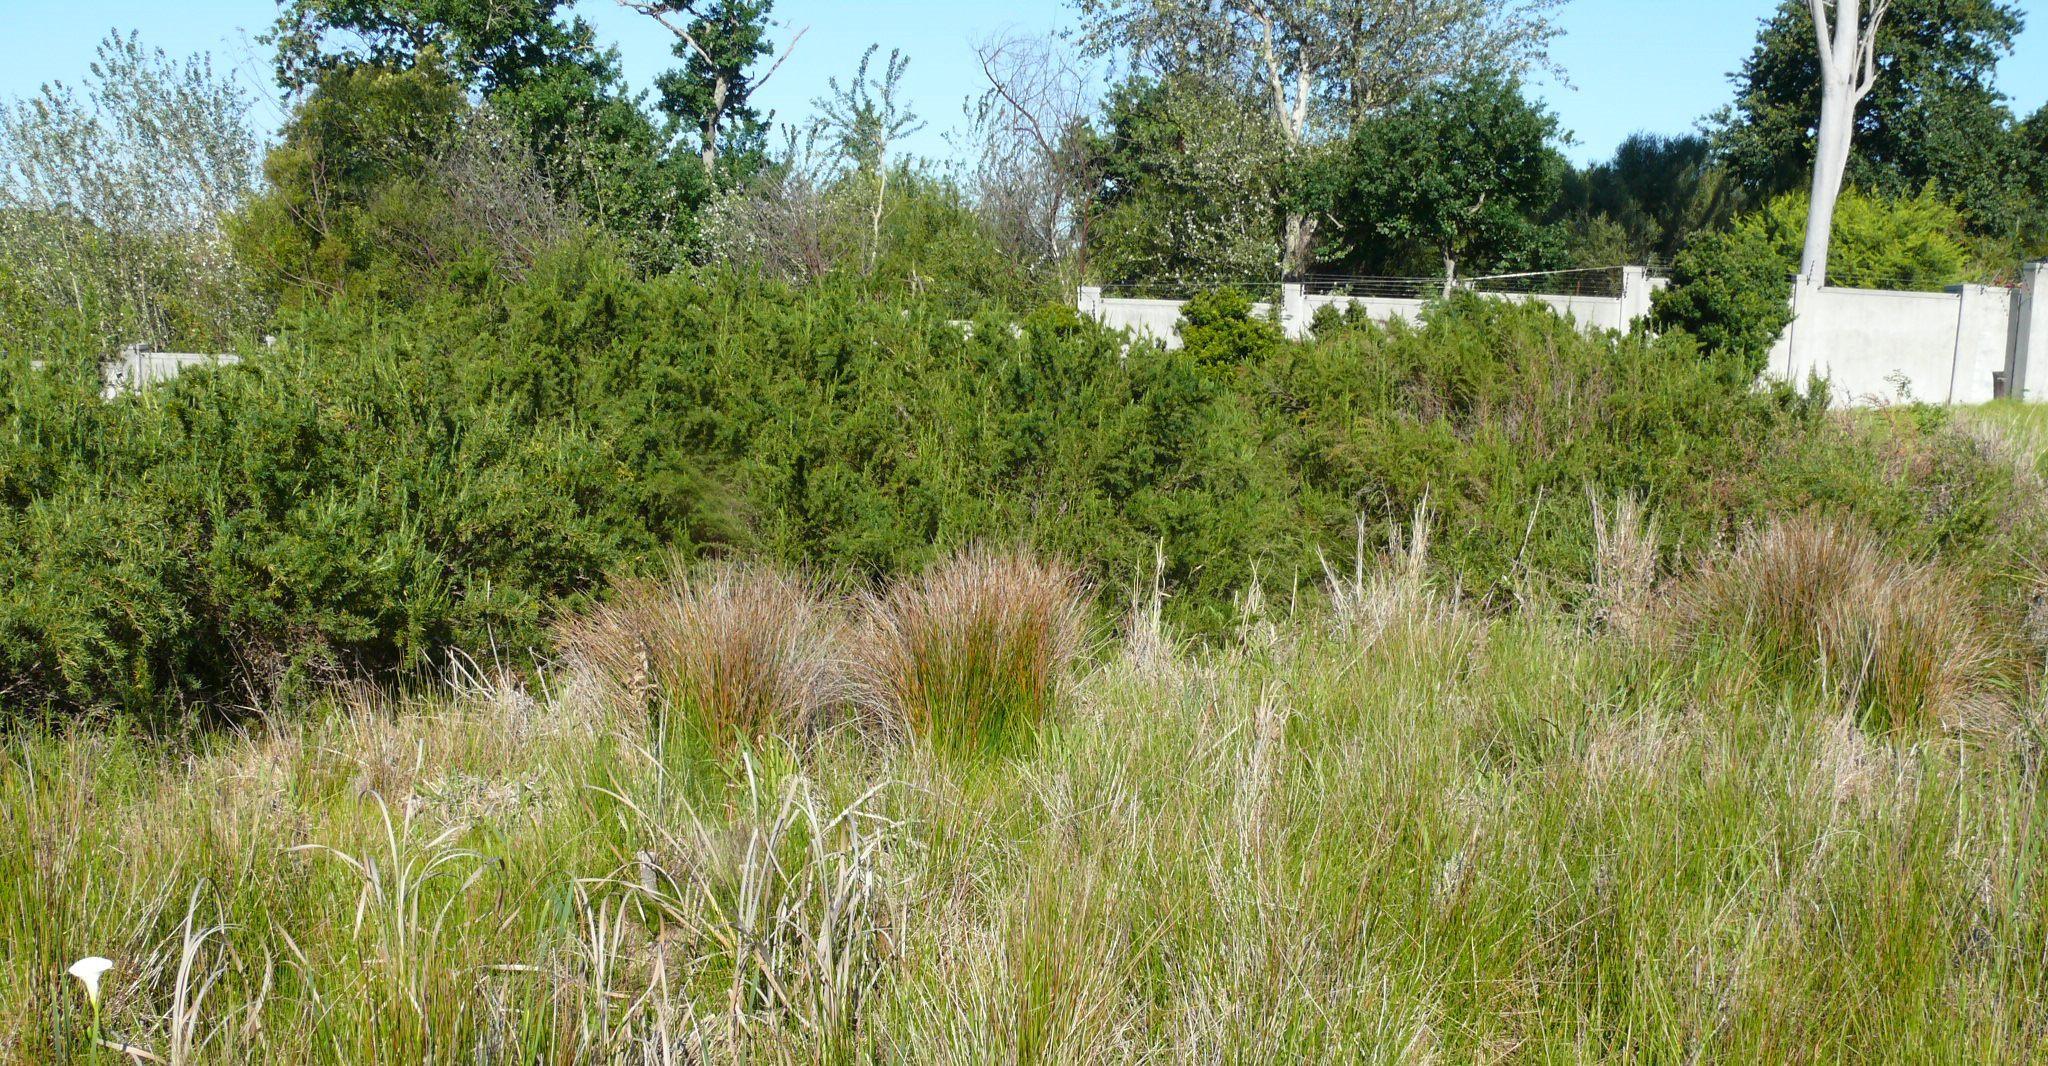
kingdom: Plantae
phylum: Tracheophyta
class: Magnoliopsida
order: Rosales
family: Rosaceae
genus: Cliffortia
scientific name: Cliffortia strobilifera
